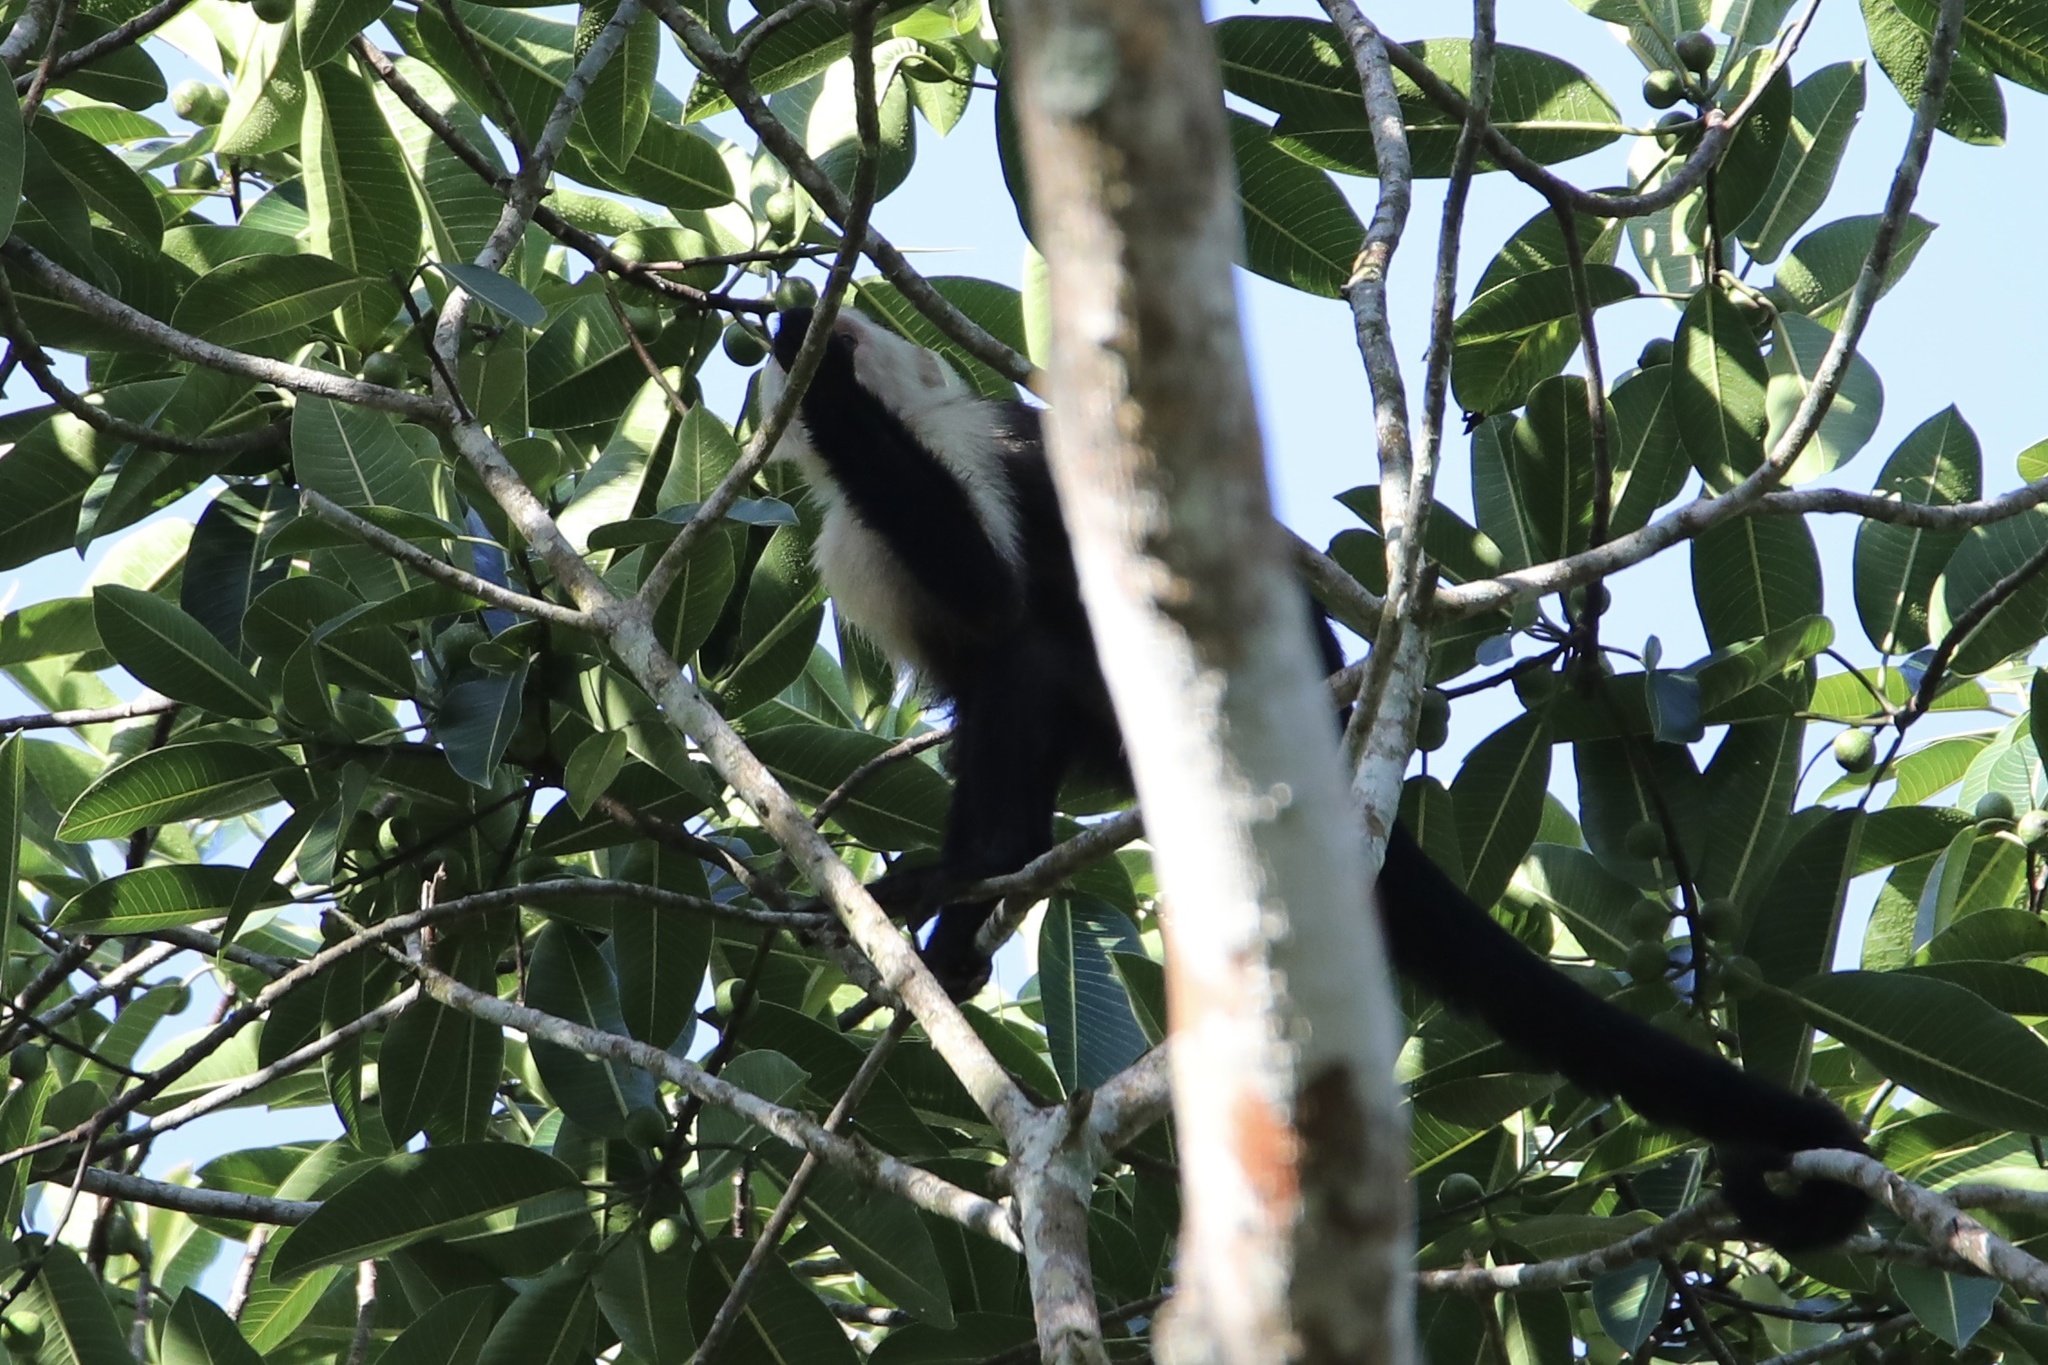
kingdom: Animalia
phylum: Chordata
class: Mammalia
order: Primates
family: Cebidae
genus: Cebus
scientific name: Cebus imitator
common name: Panamanian white-faced capuchin
